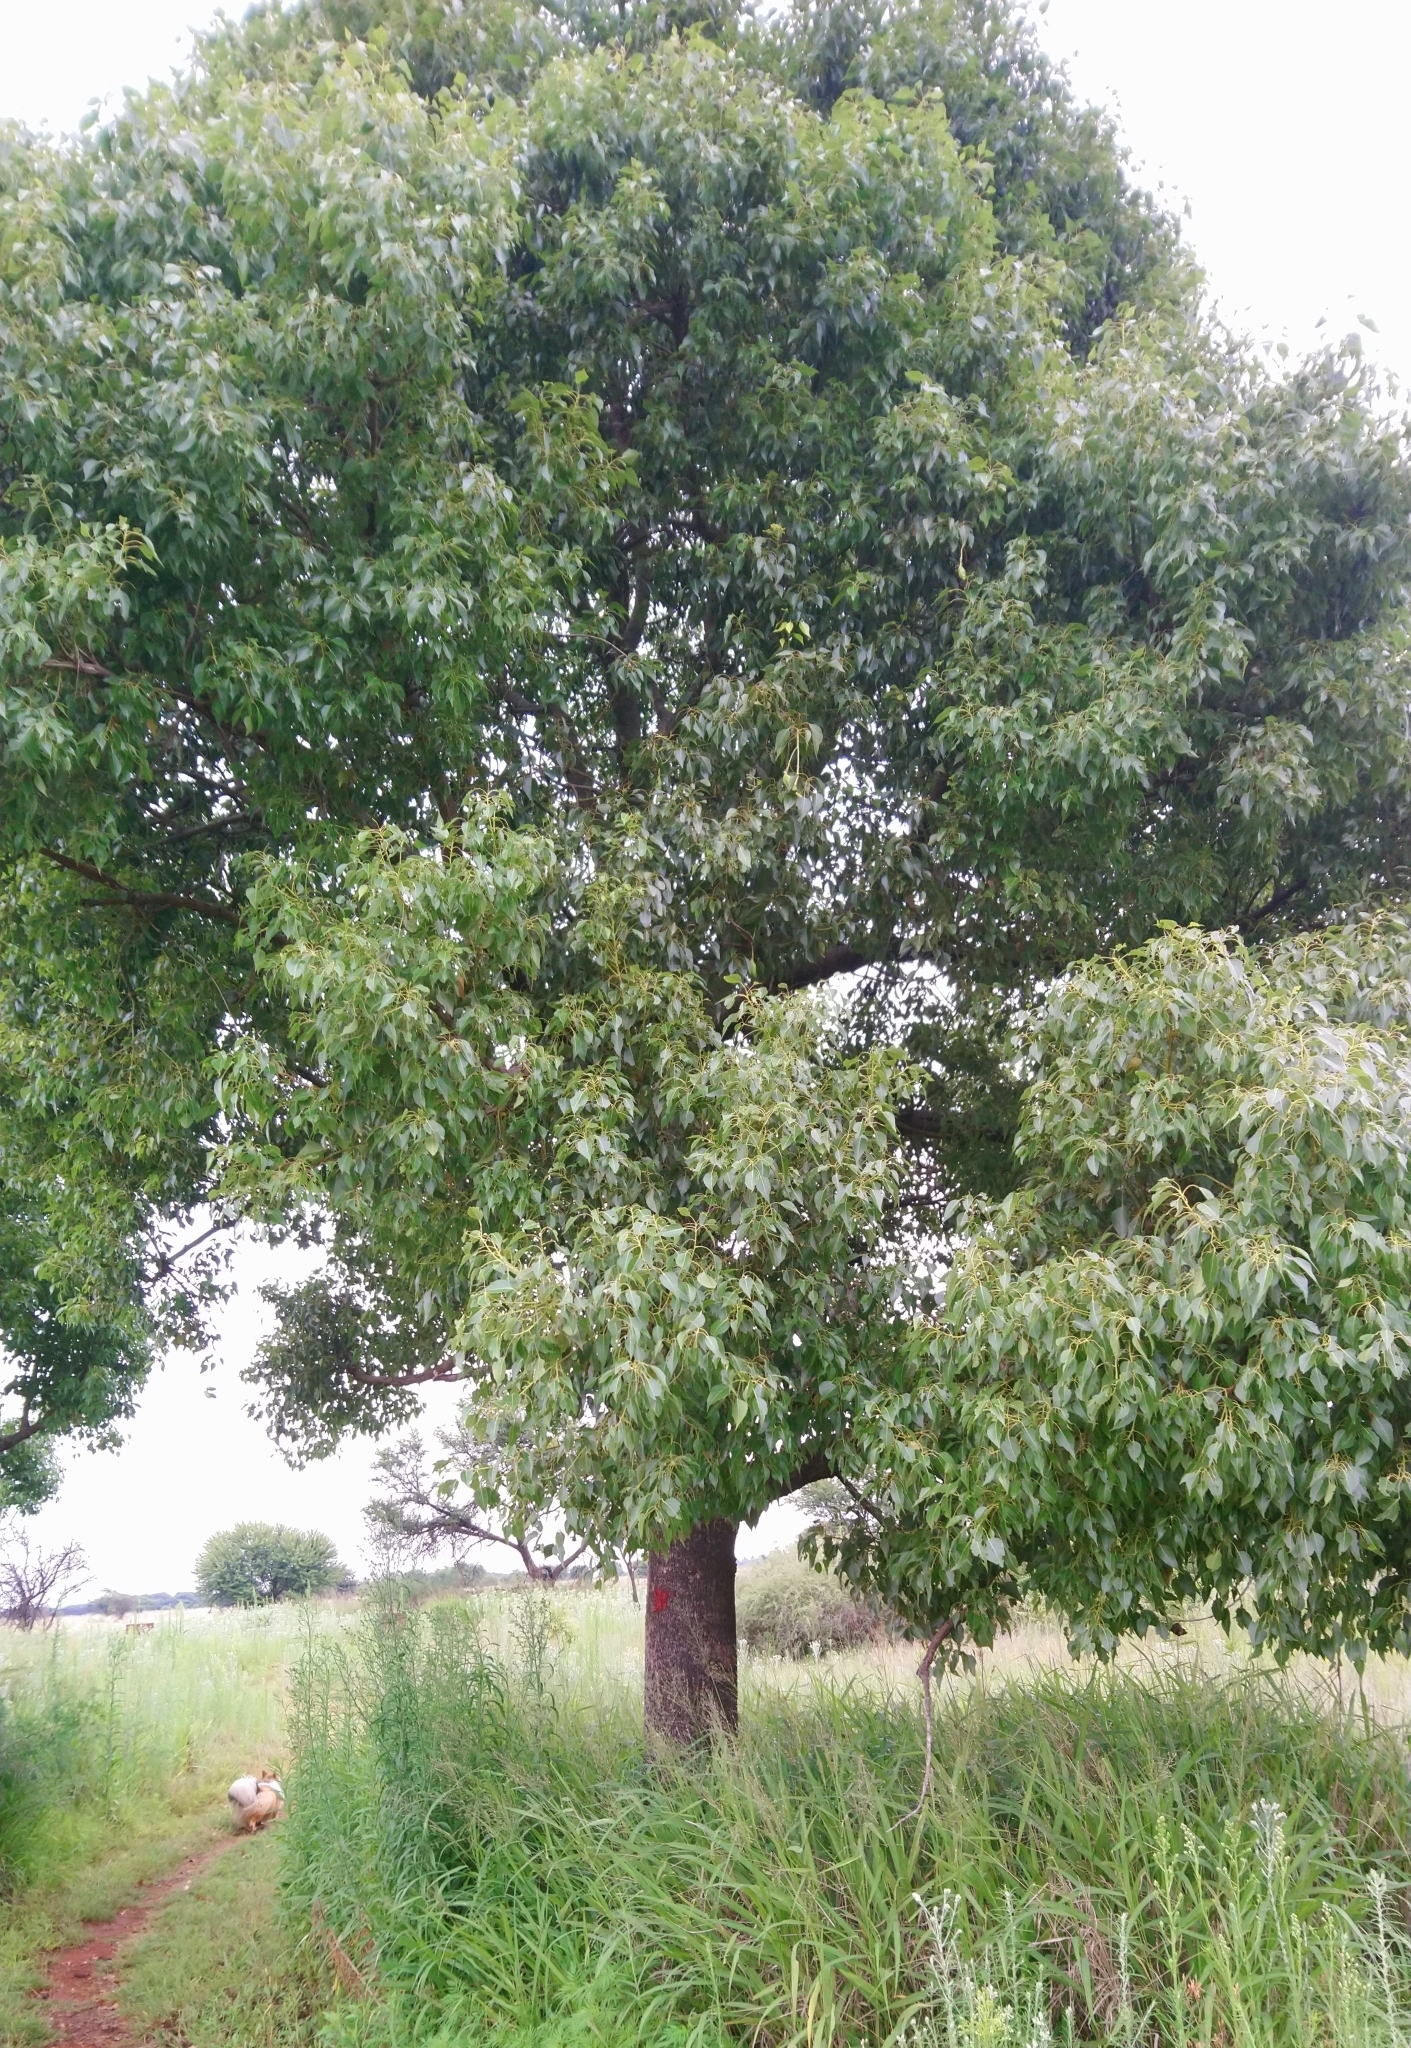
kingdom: Plantae
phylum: Tracheophyta
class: Magnoliopsida
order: Laurales
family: Lauraceae
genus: Cinnamomum
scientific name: Cinnamomum camphora
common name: Camphortree
